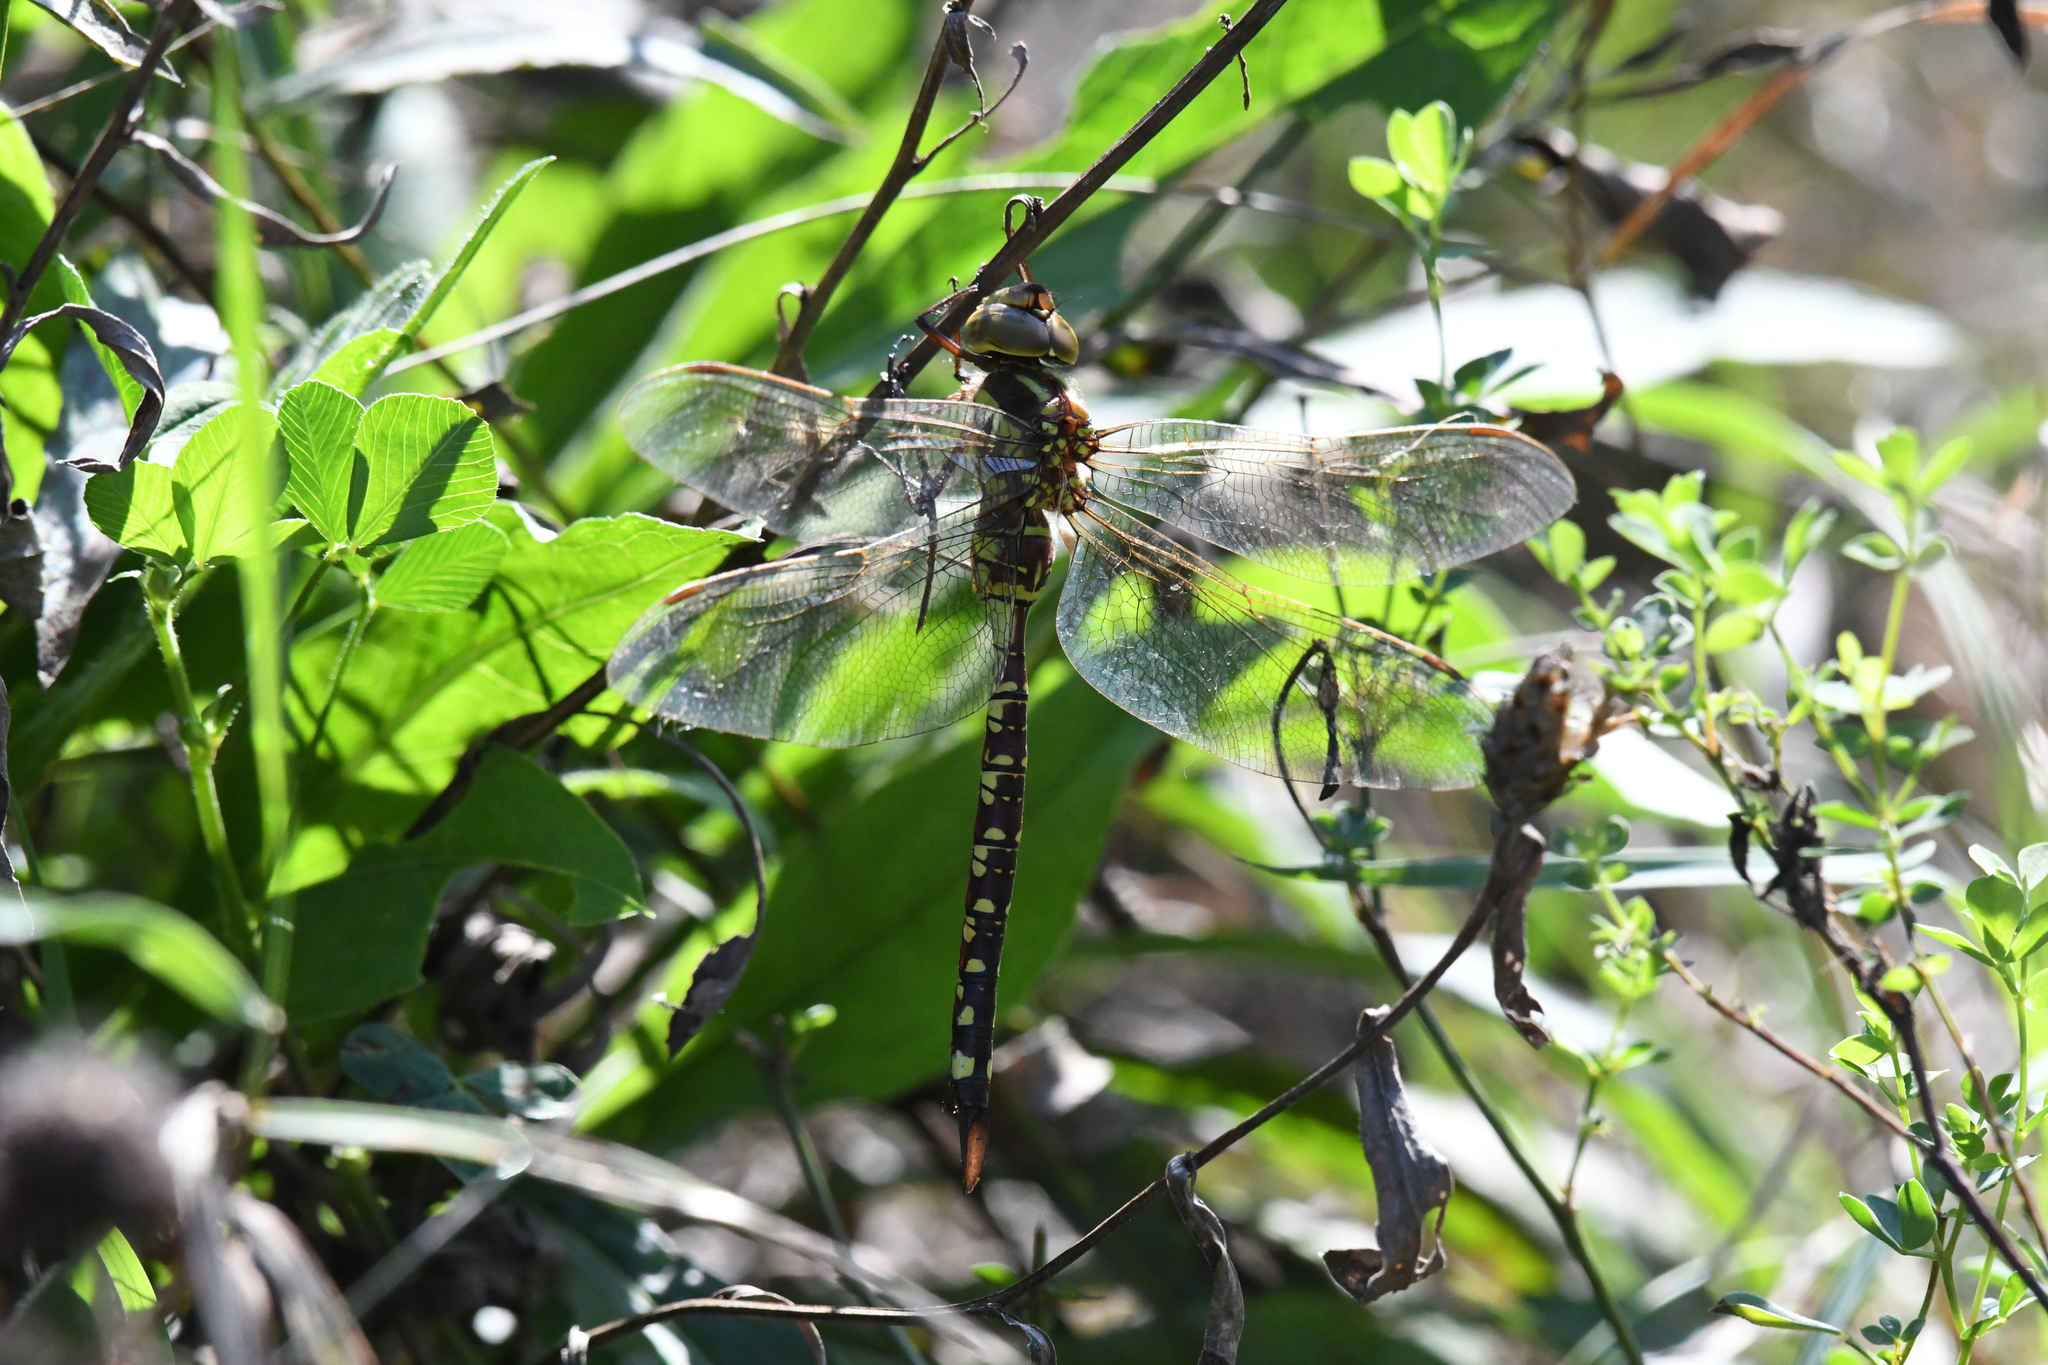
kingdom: Animalia
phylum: Arthropoda
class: Insecta
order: Odonata
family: Aeshnidae
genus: Aeshna
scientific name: Aeshna constricta
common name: Lance-tipped darner
